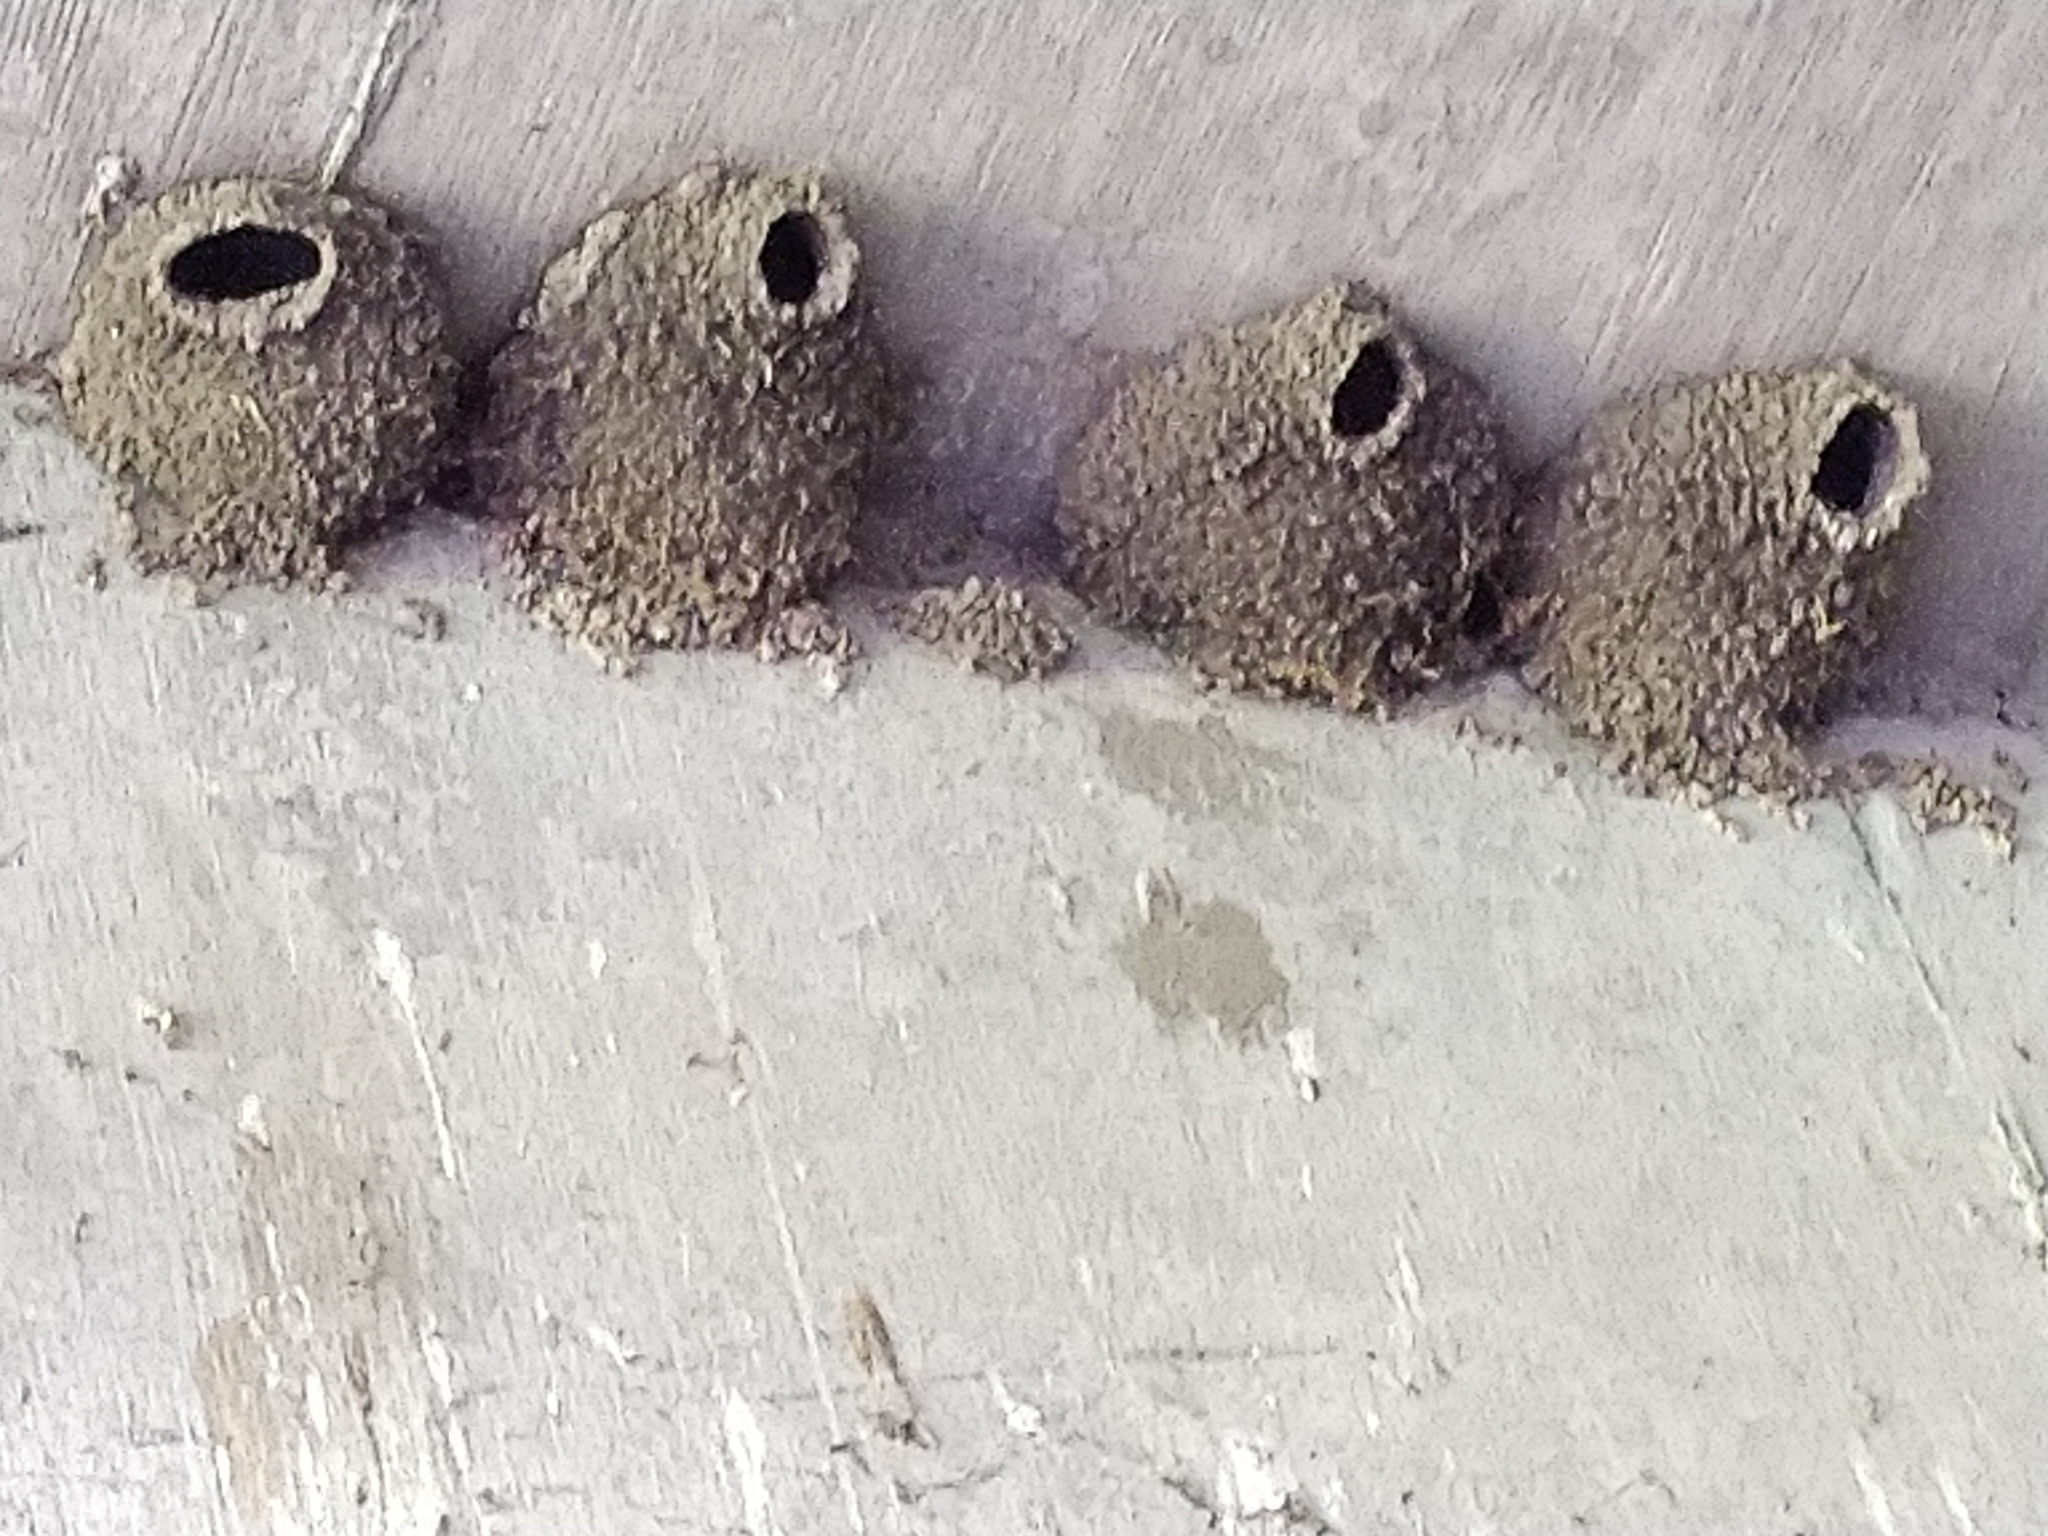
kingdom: Animalia
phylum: Chordata
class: Aves
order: Passeriformes
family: Hirundinidae
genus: Petrochelidon
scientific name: Petrochelidon pyrrhonota
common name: American cliff swallow
